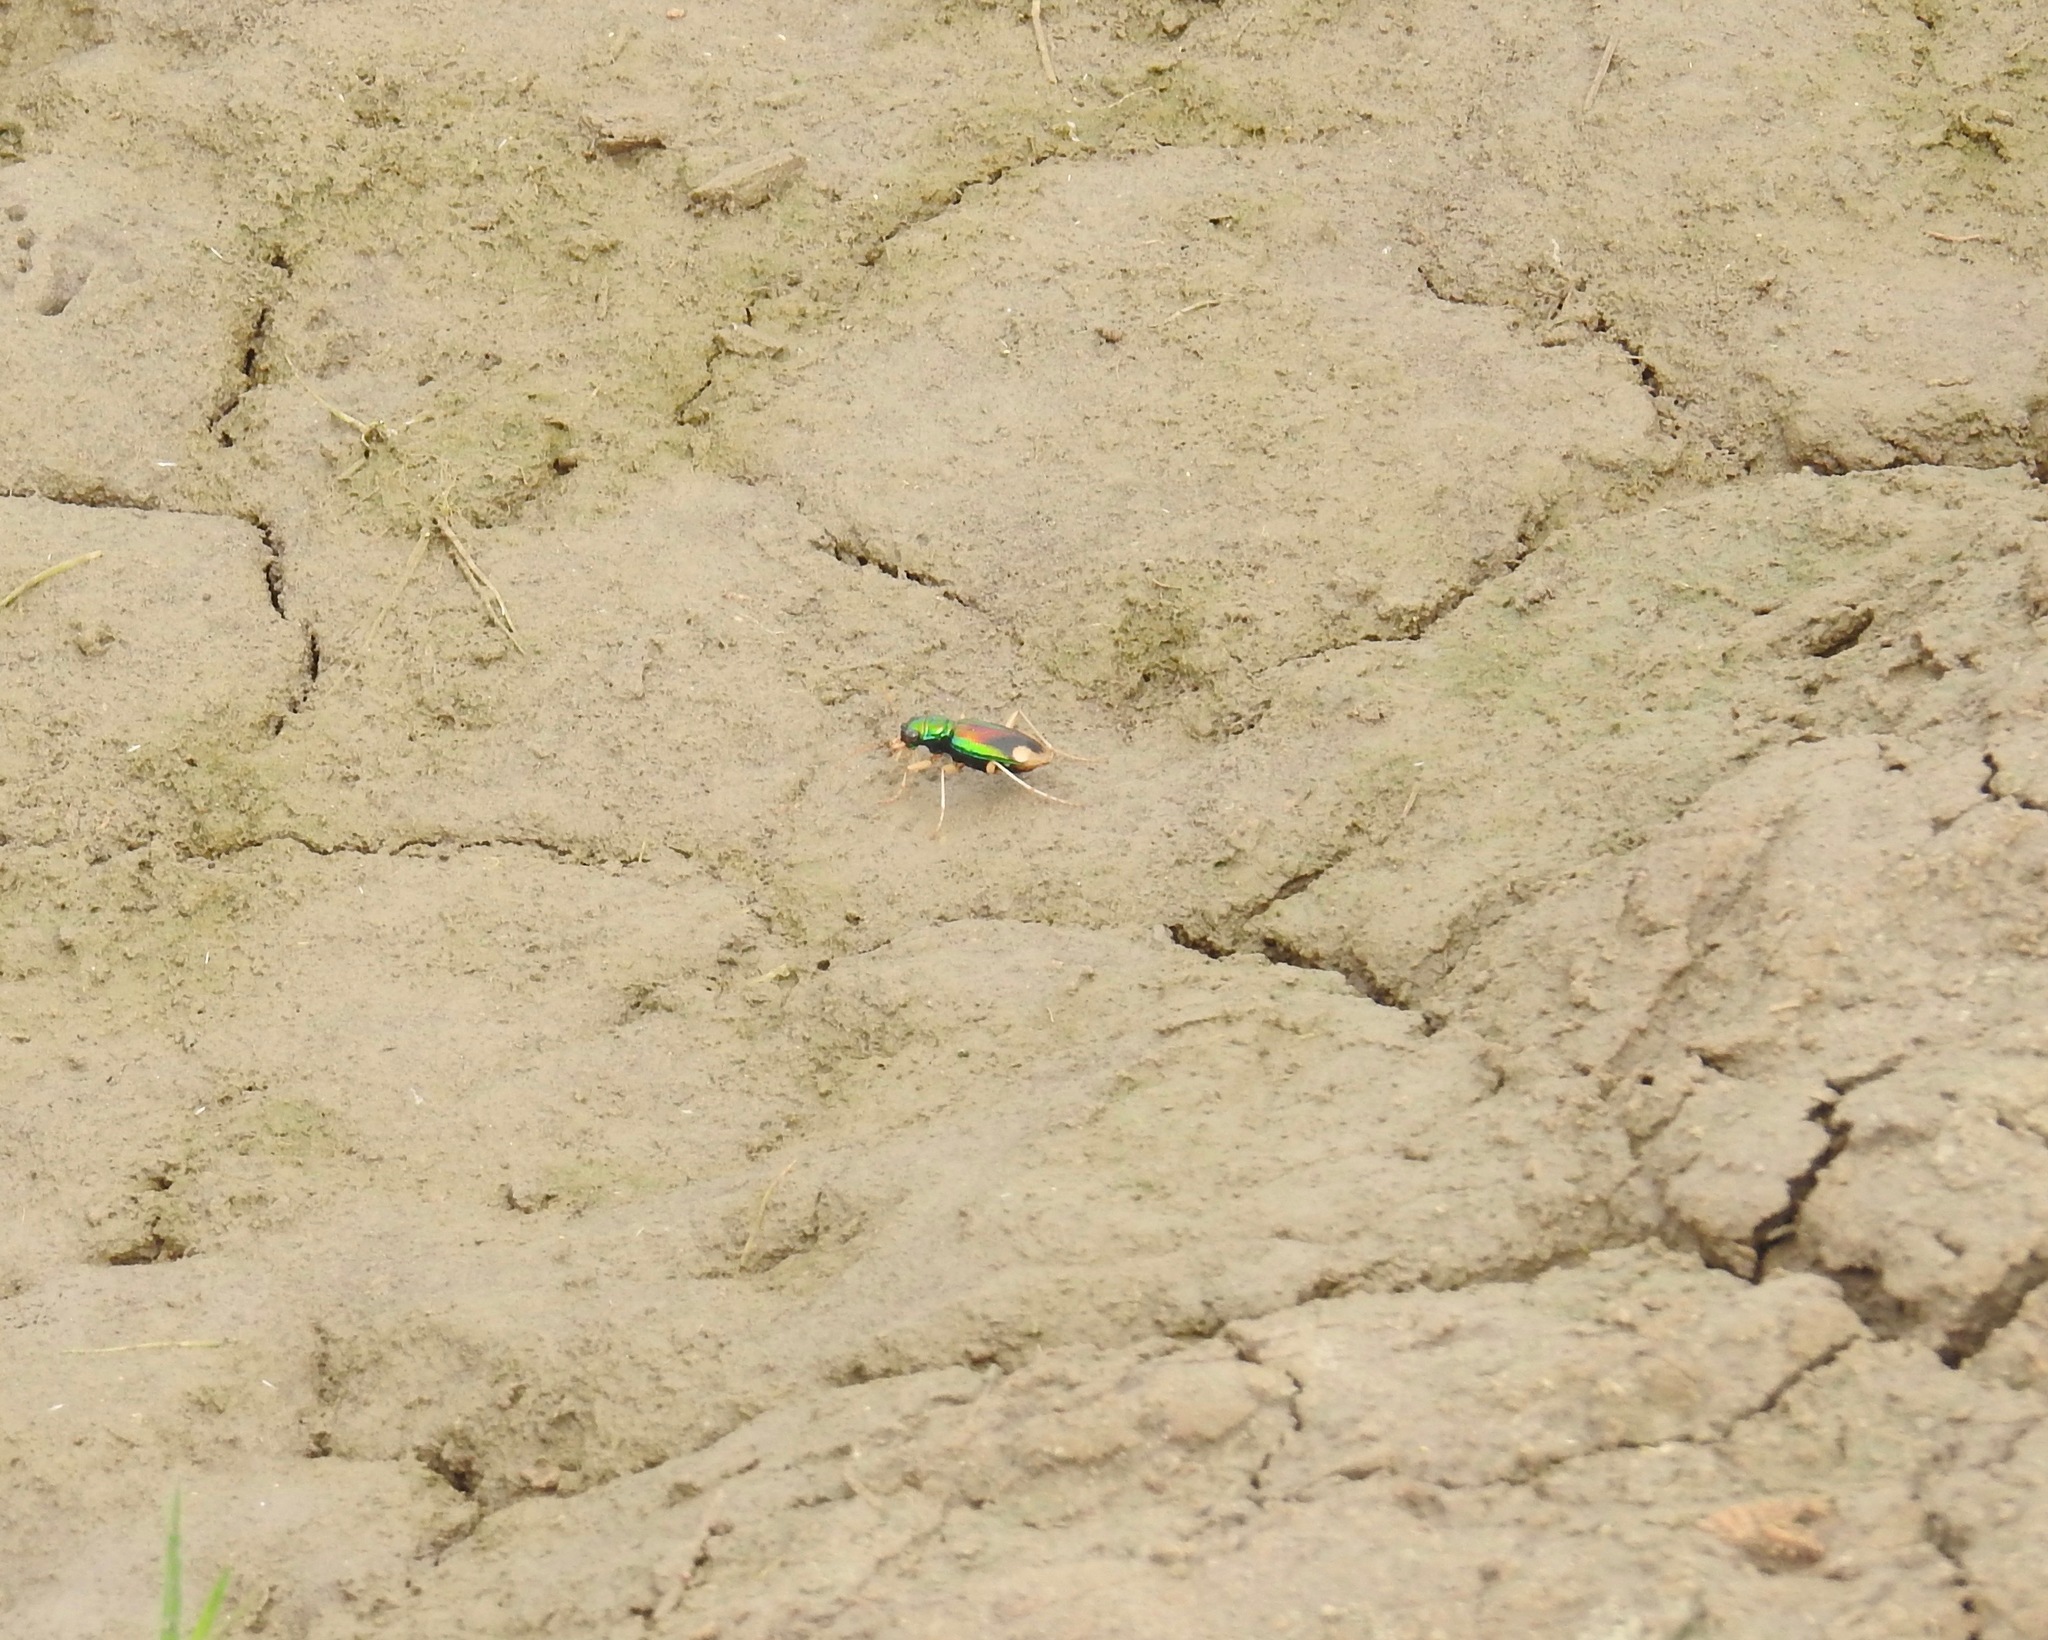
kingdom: Animalia
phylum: Arthropoda
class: Insecta
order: Coleoptera
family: Carabidae
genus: Tetracha
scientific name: Tetracha carolina
